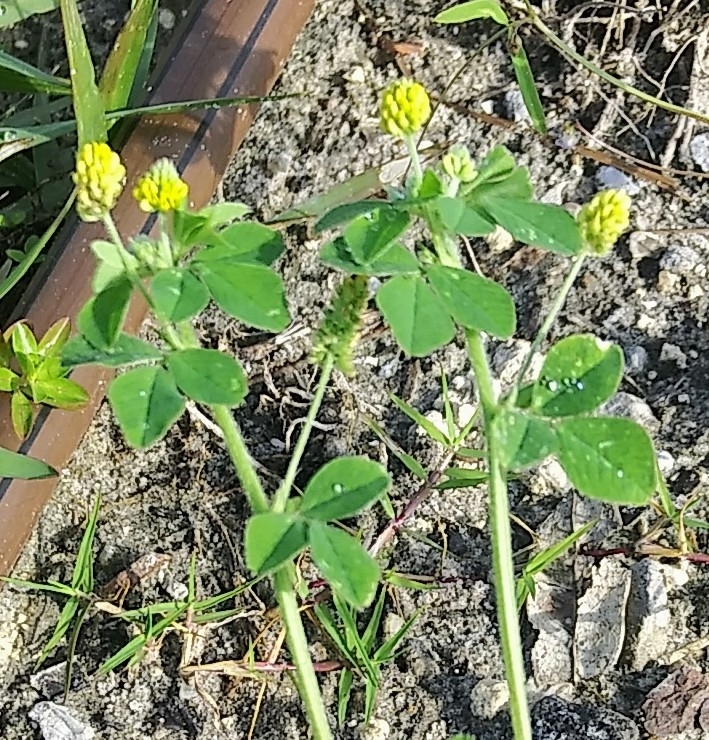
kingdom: Plantae
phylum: Tracheophyta
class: Magnoliopsida
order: Fabales
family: Fabaceae
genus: Medicago
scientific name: Medicago lupulina
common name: Black medick
